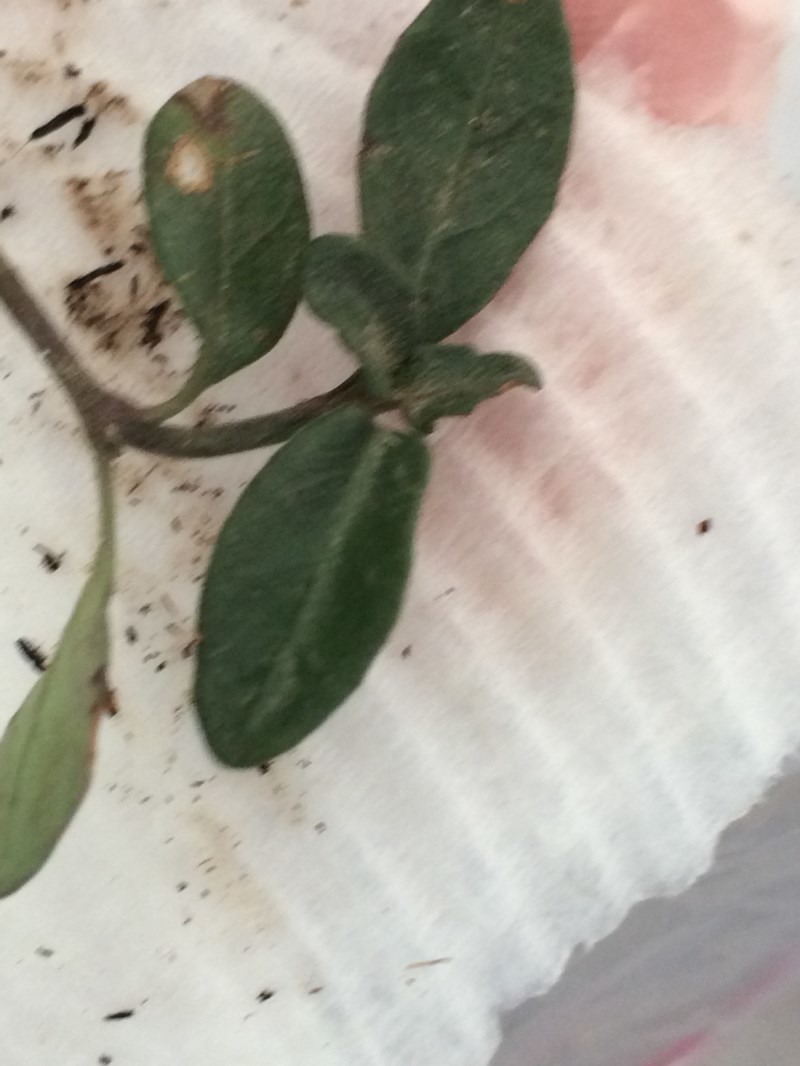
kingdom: Plantae
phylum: Tracheophyta
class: Magnoliopsida
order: Lamiales
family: Acanthaceae
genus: Brunoniella
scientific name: Brunoniella pumilio
